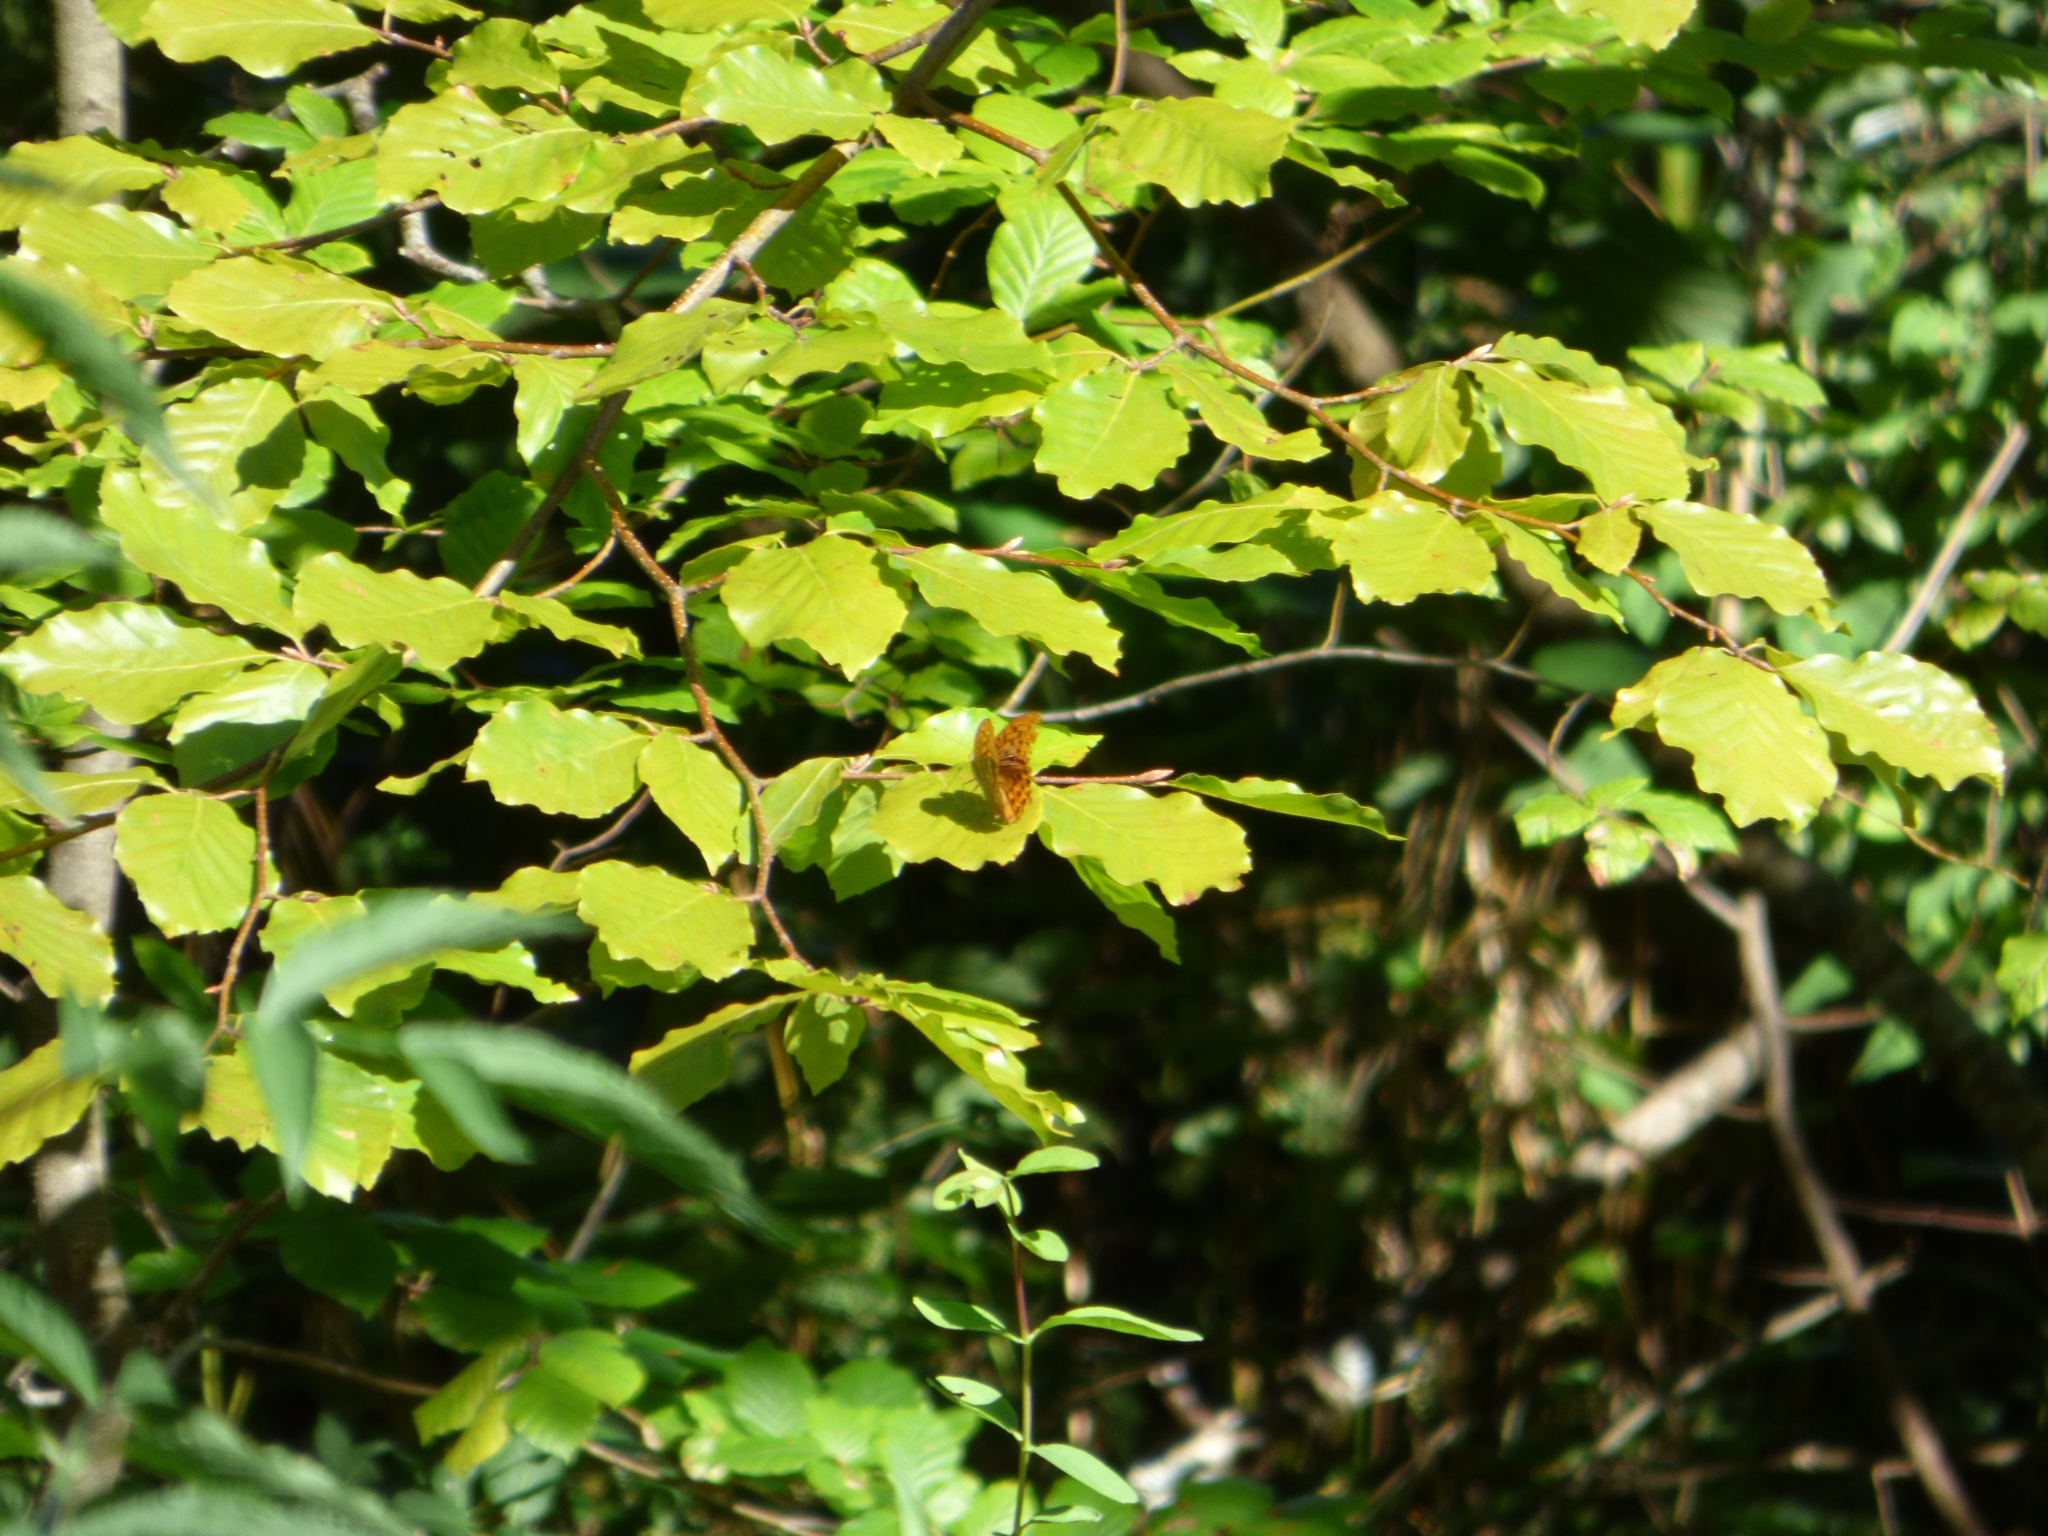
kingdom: Animalia
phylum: Arthropoda
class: Insecta
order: Lepidoptera
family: Nymphalidae
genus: Argynnis
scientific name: Argynnis paphia
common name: Silver-washed fritillary
